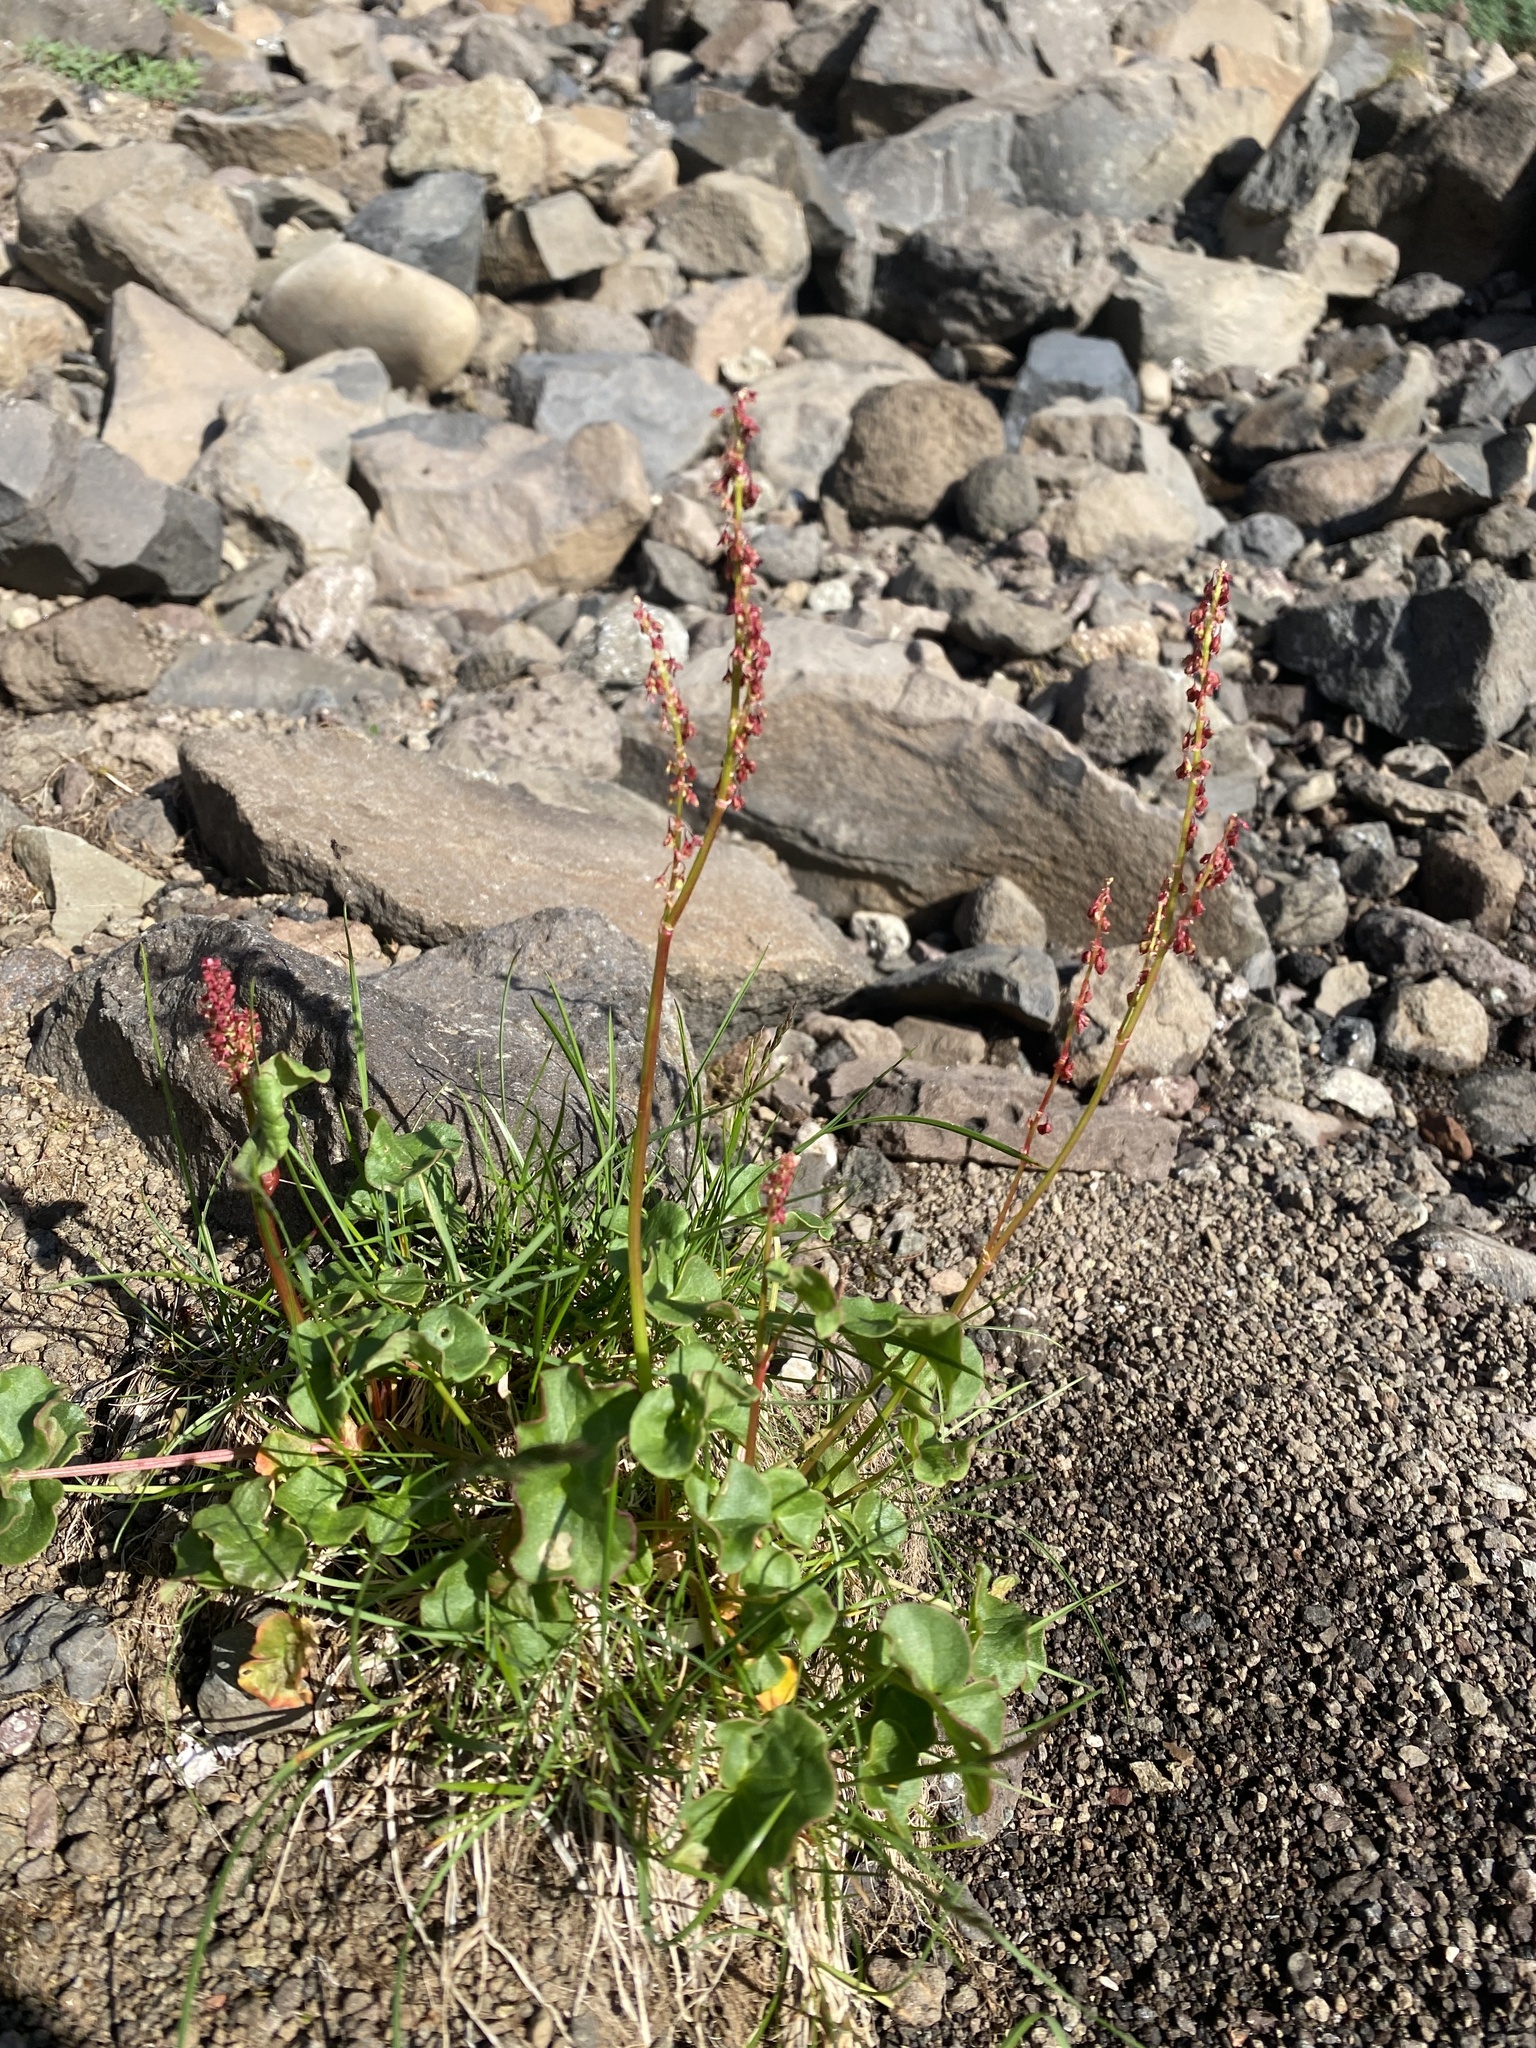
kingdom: Plantae
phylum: Tracheophyta
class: Magnoliopsida
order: Caryophyllales
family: Polygonaceae
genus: Oxyria
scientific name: Oxyria digyna
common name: Alpine mountain-sorrel
